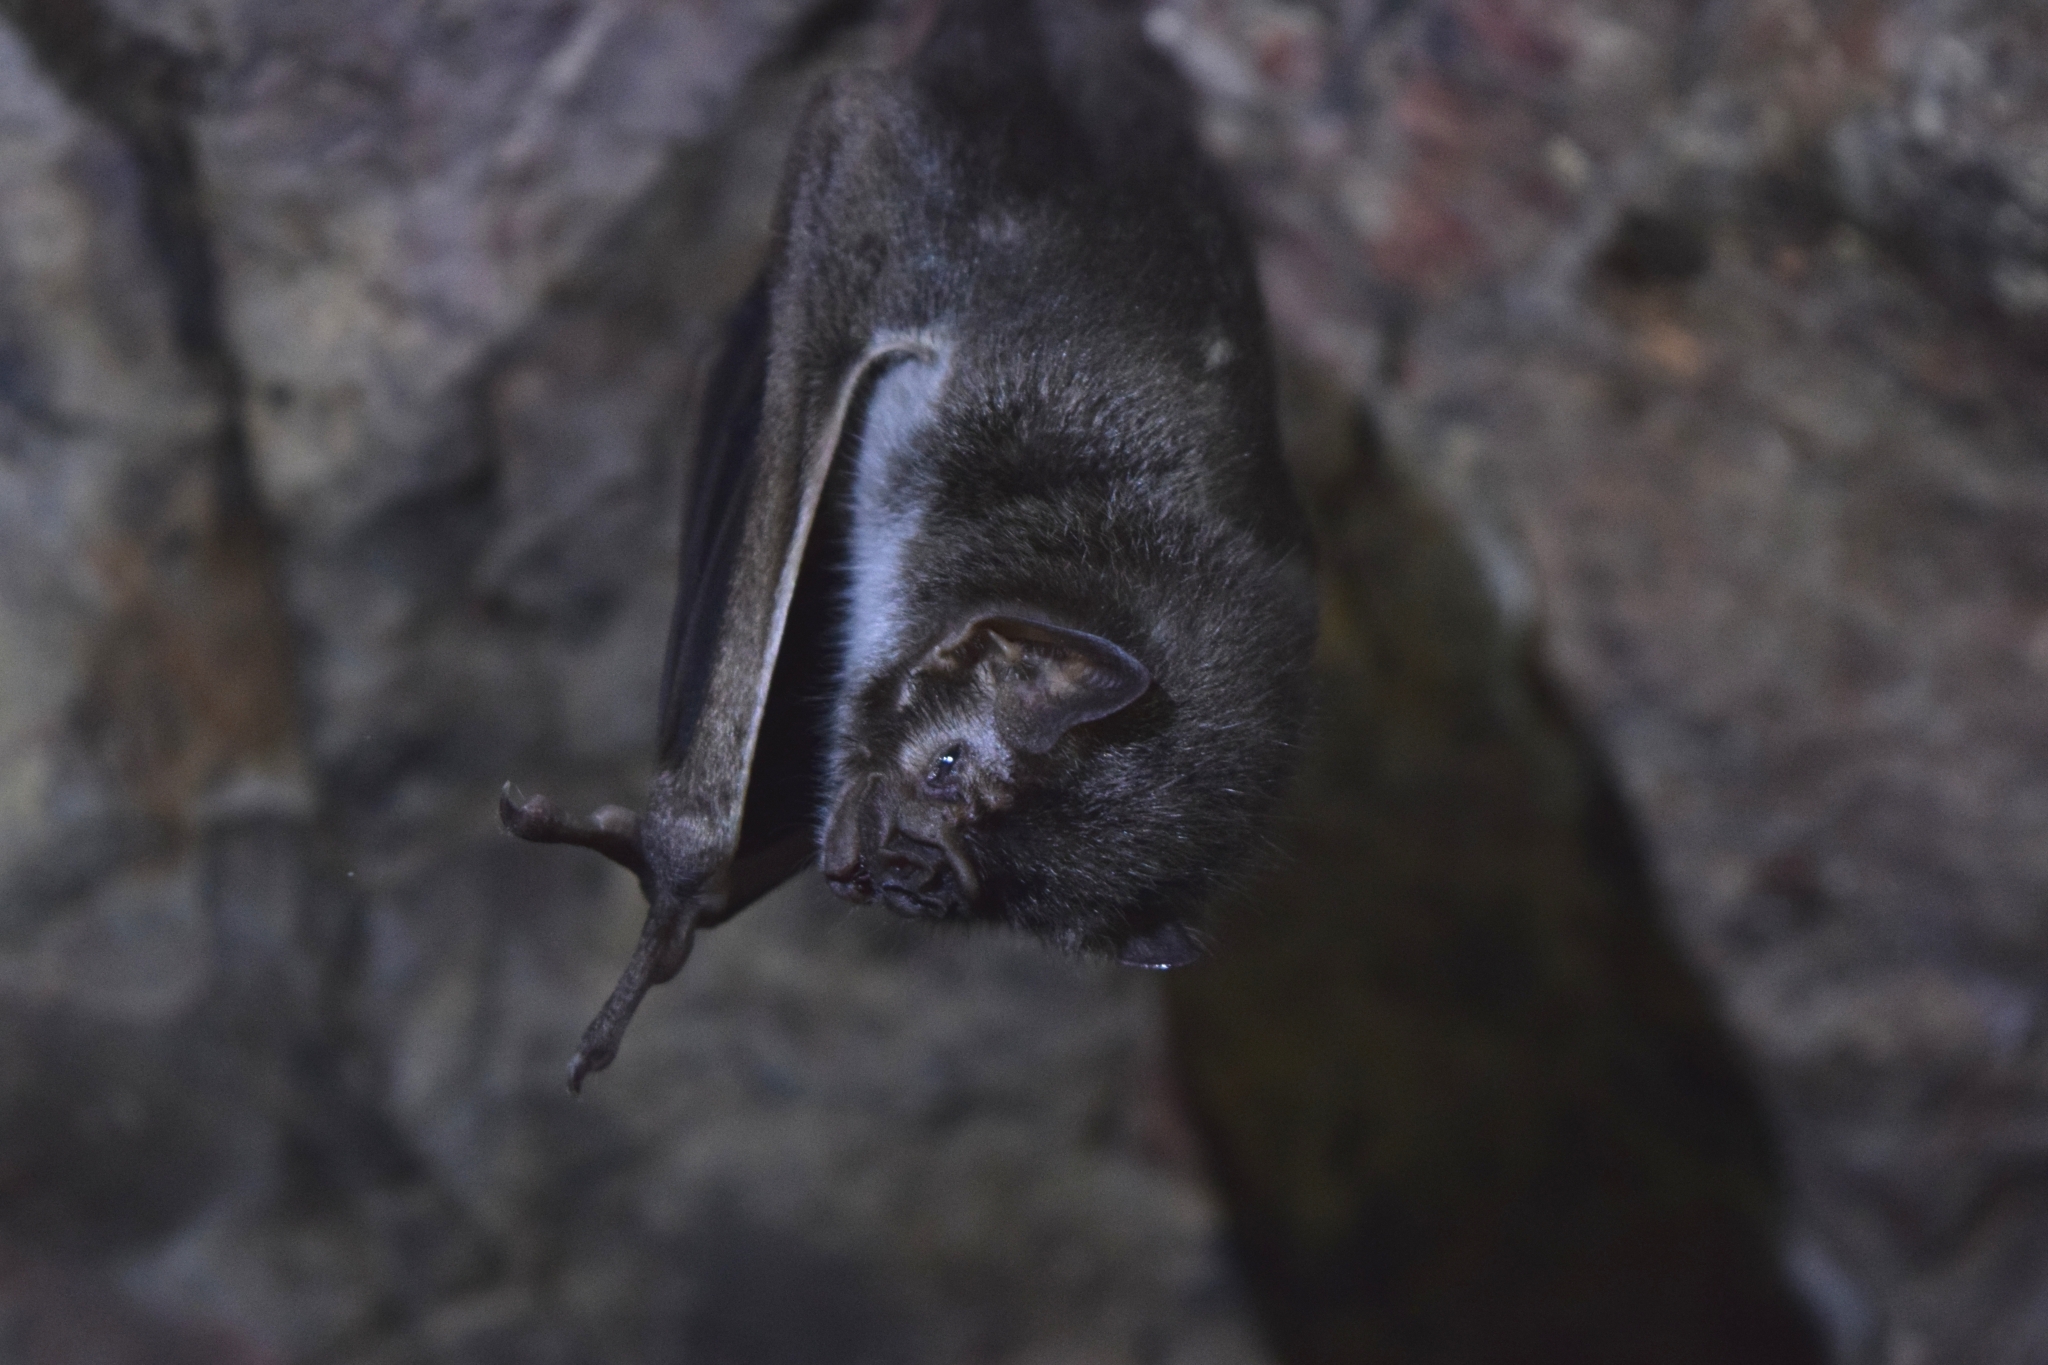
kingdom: Animalia
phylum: Chordata
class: Mammalia
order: Chiroptera
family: Phyllostomidae
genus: Desmodus
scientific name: Desmodus rotundus
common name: Common vampire bat
